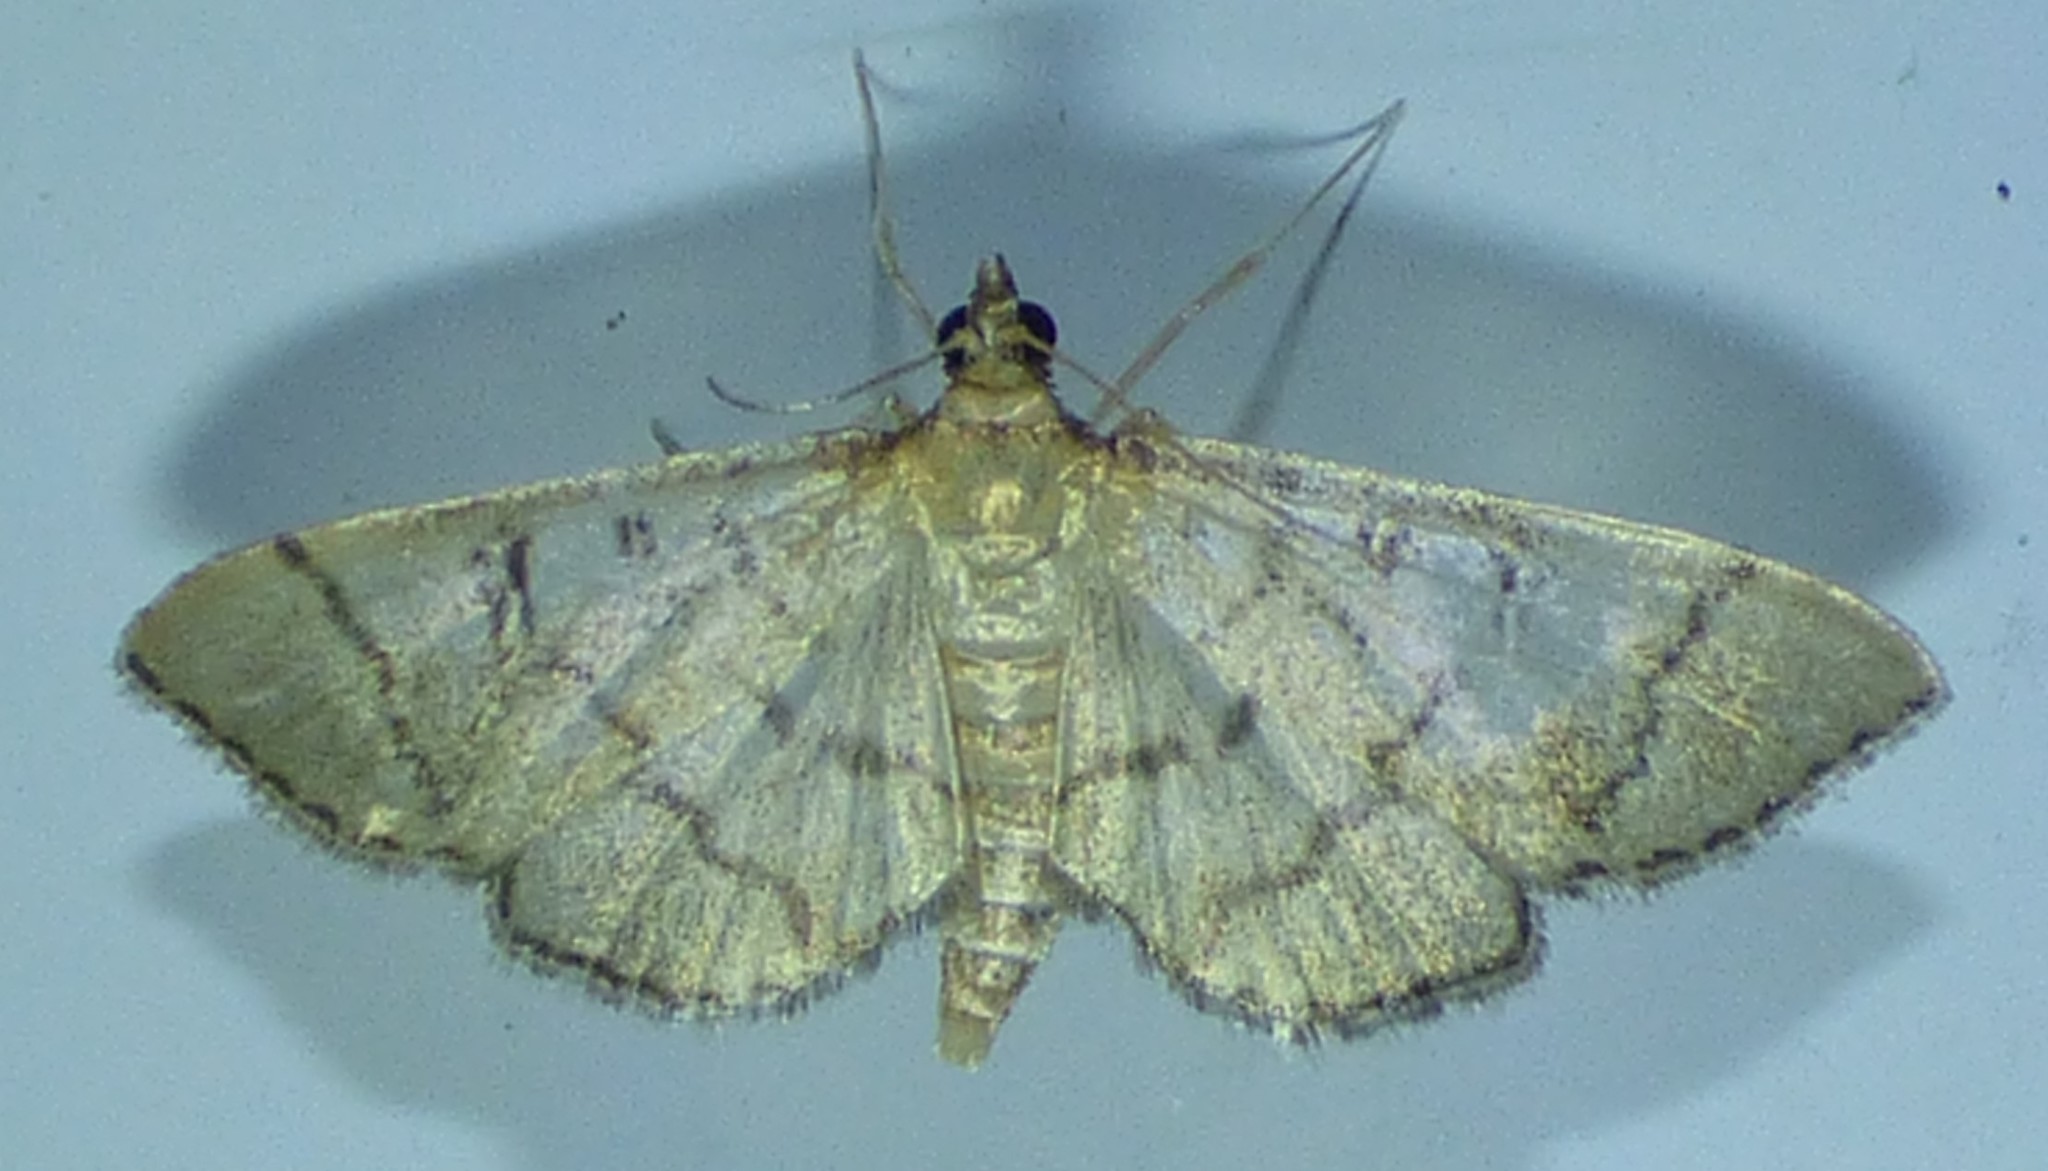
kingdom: Animalia
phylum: Arthropoda
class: Insecta
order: Lepidoptera
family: Crambidae
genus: Lamprosema
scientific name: Lamprosema Blepharomastix ranalis
